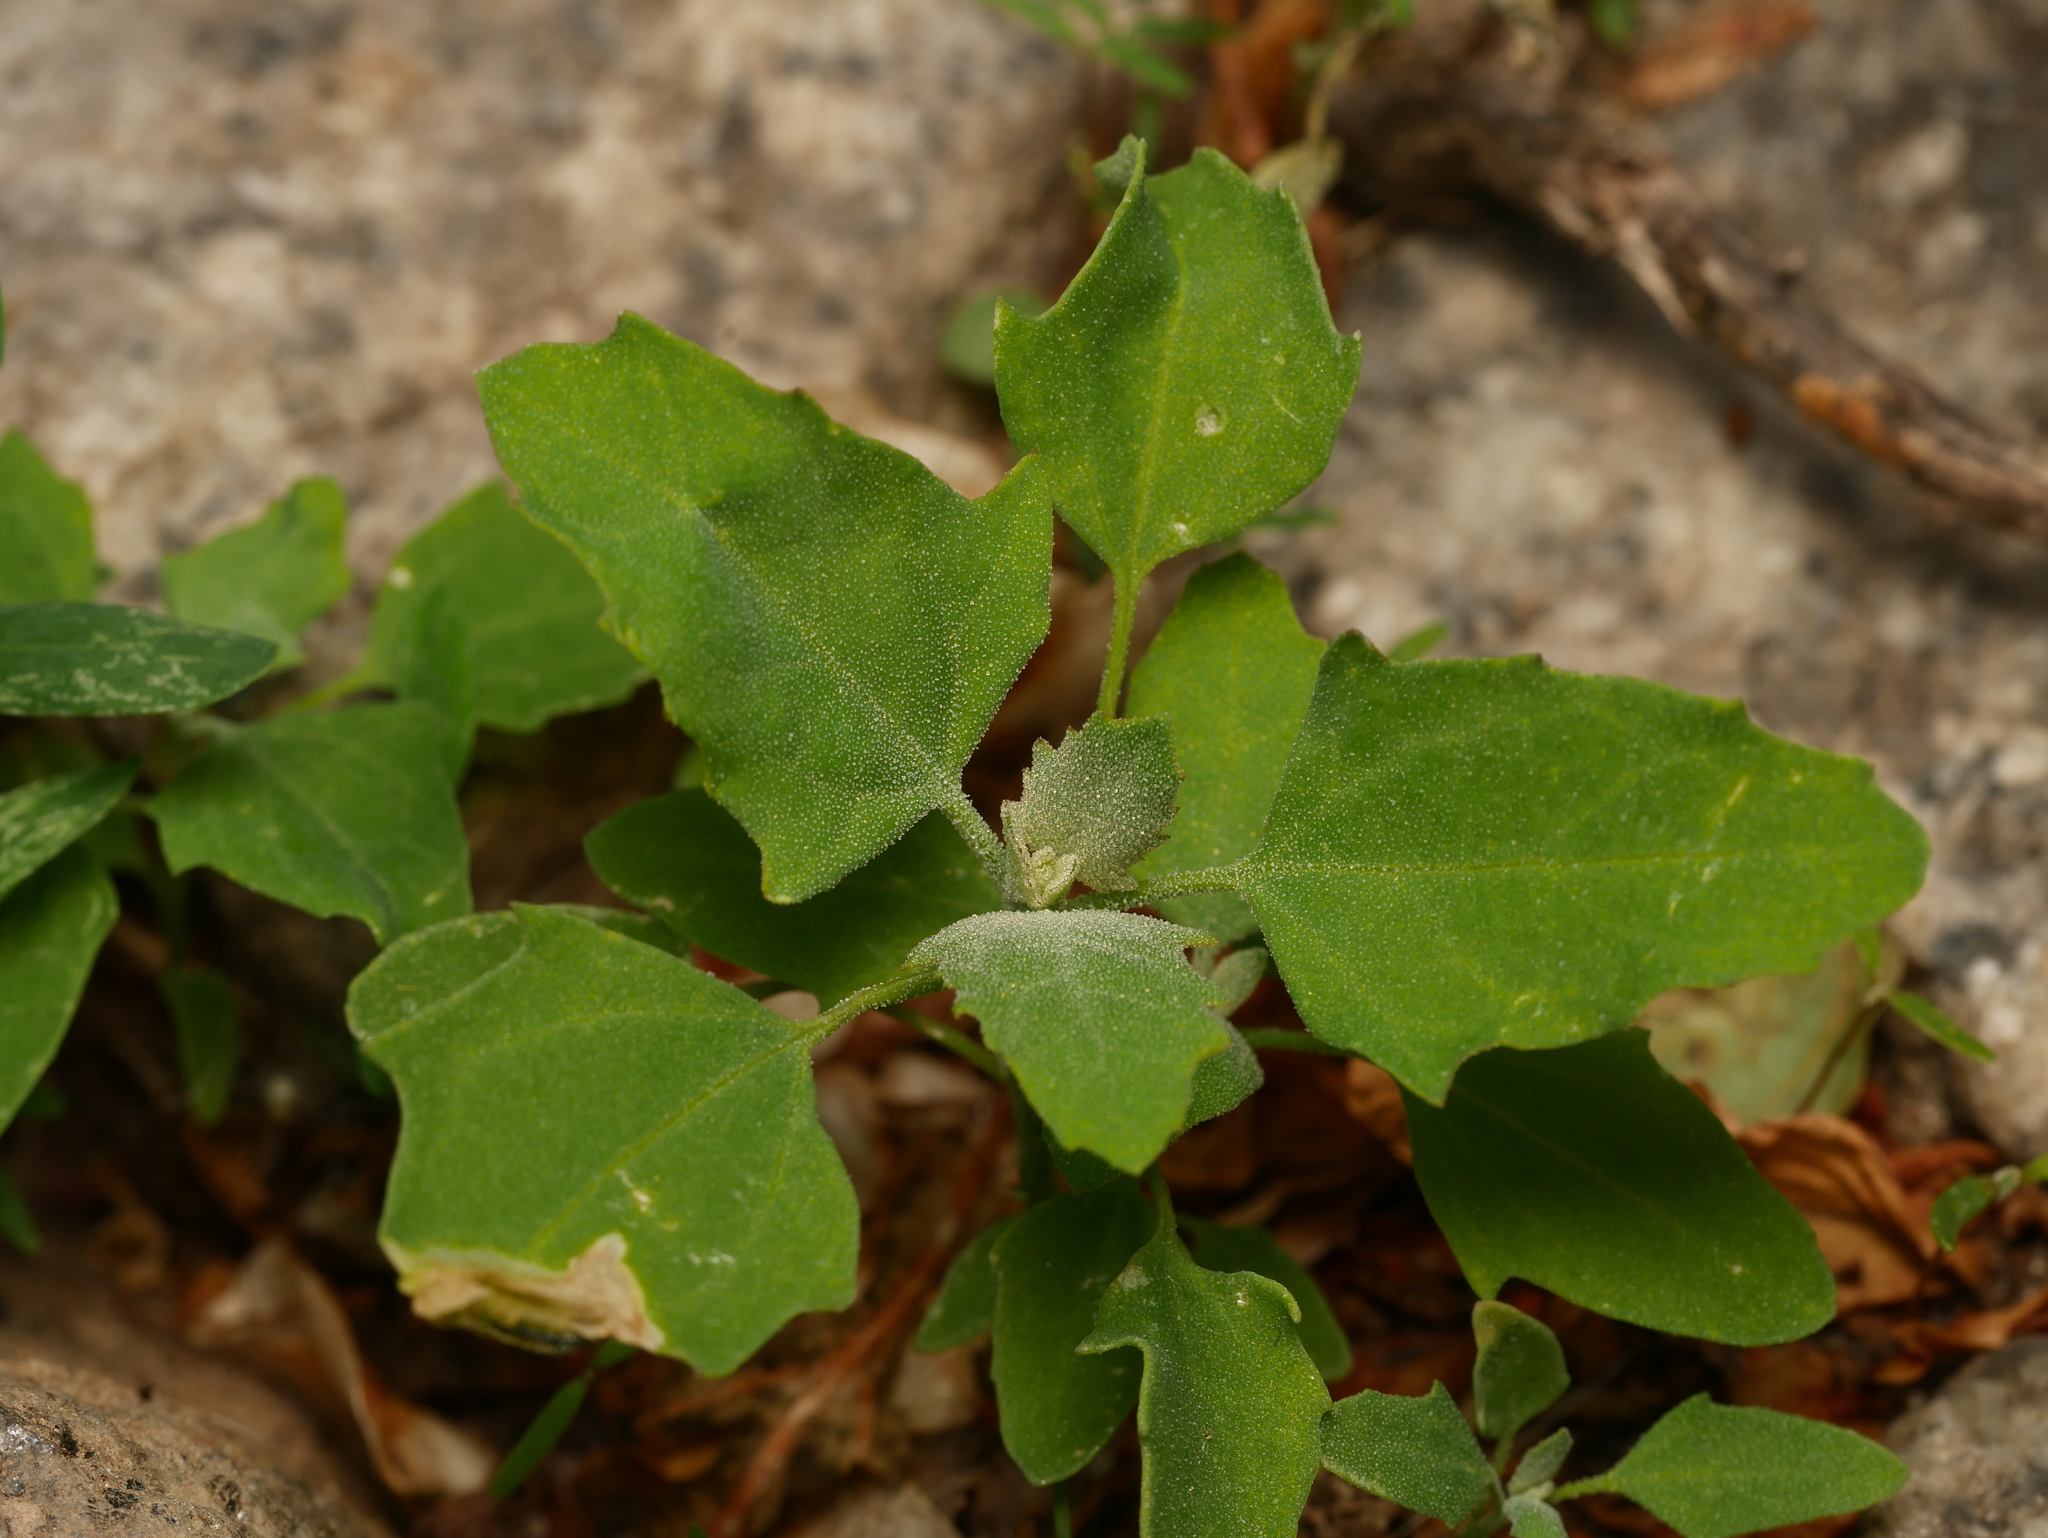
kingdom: Plantae
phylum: Tracheophyta
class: Magnoliopsida
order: Caryophyllales
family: Amaranthaceae
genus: Chenopodium
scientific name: Chenopodium album
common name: Fat-hen
